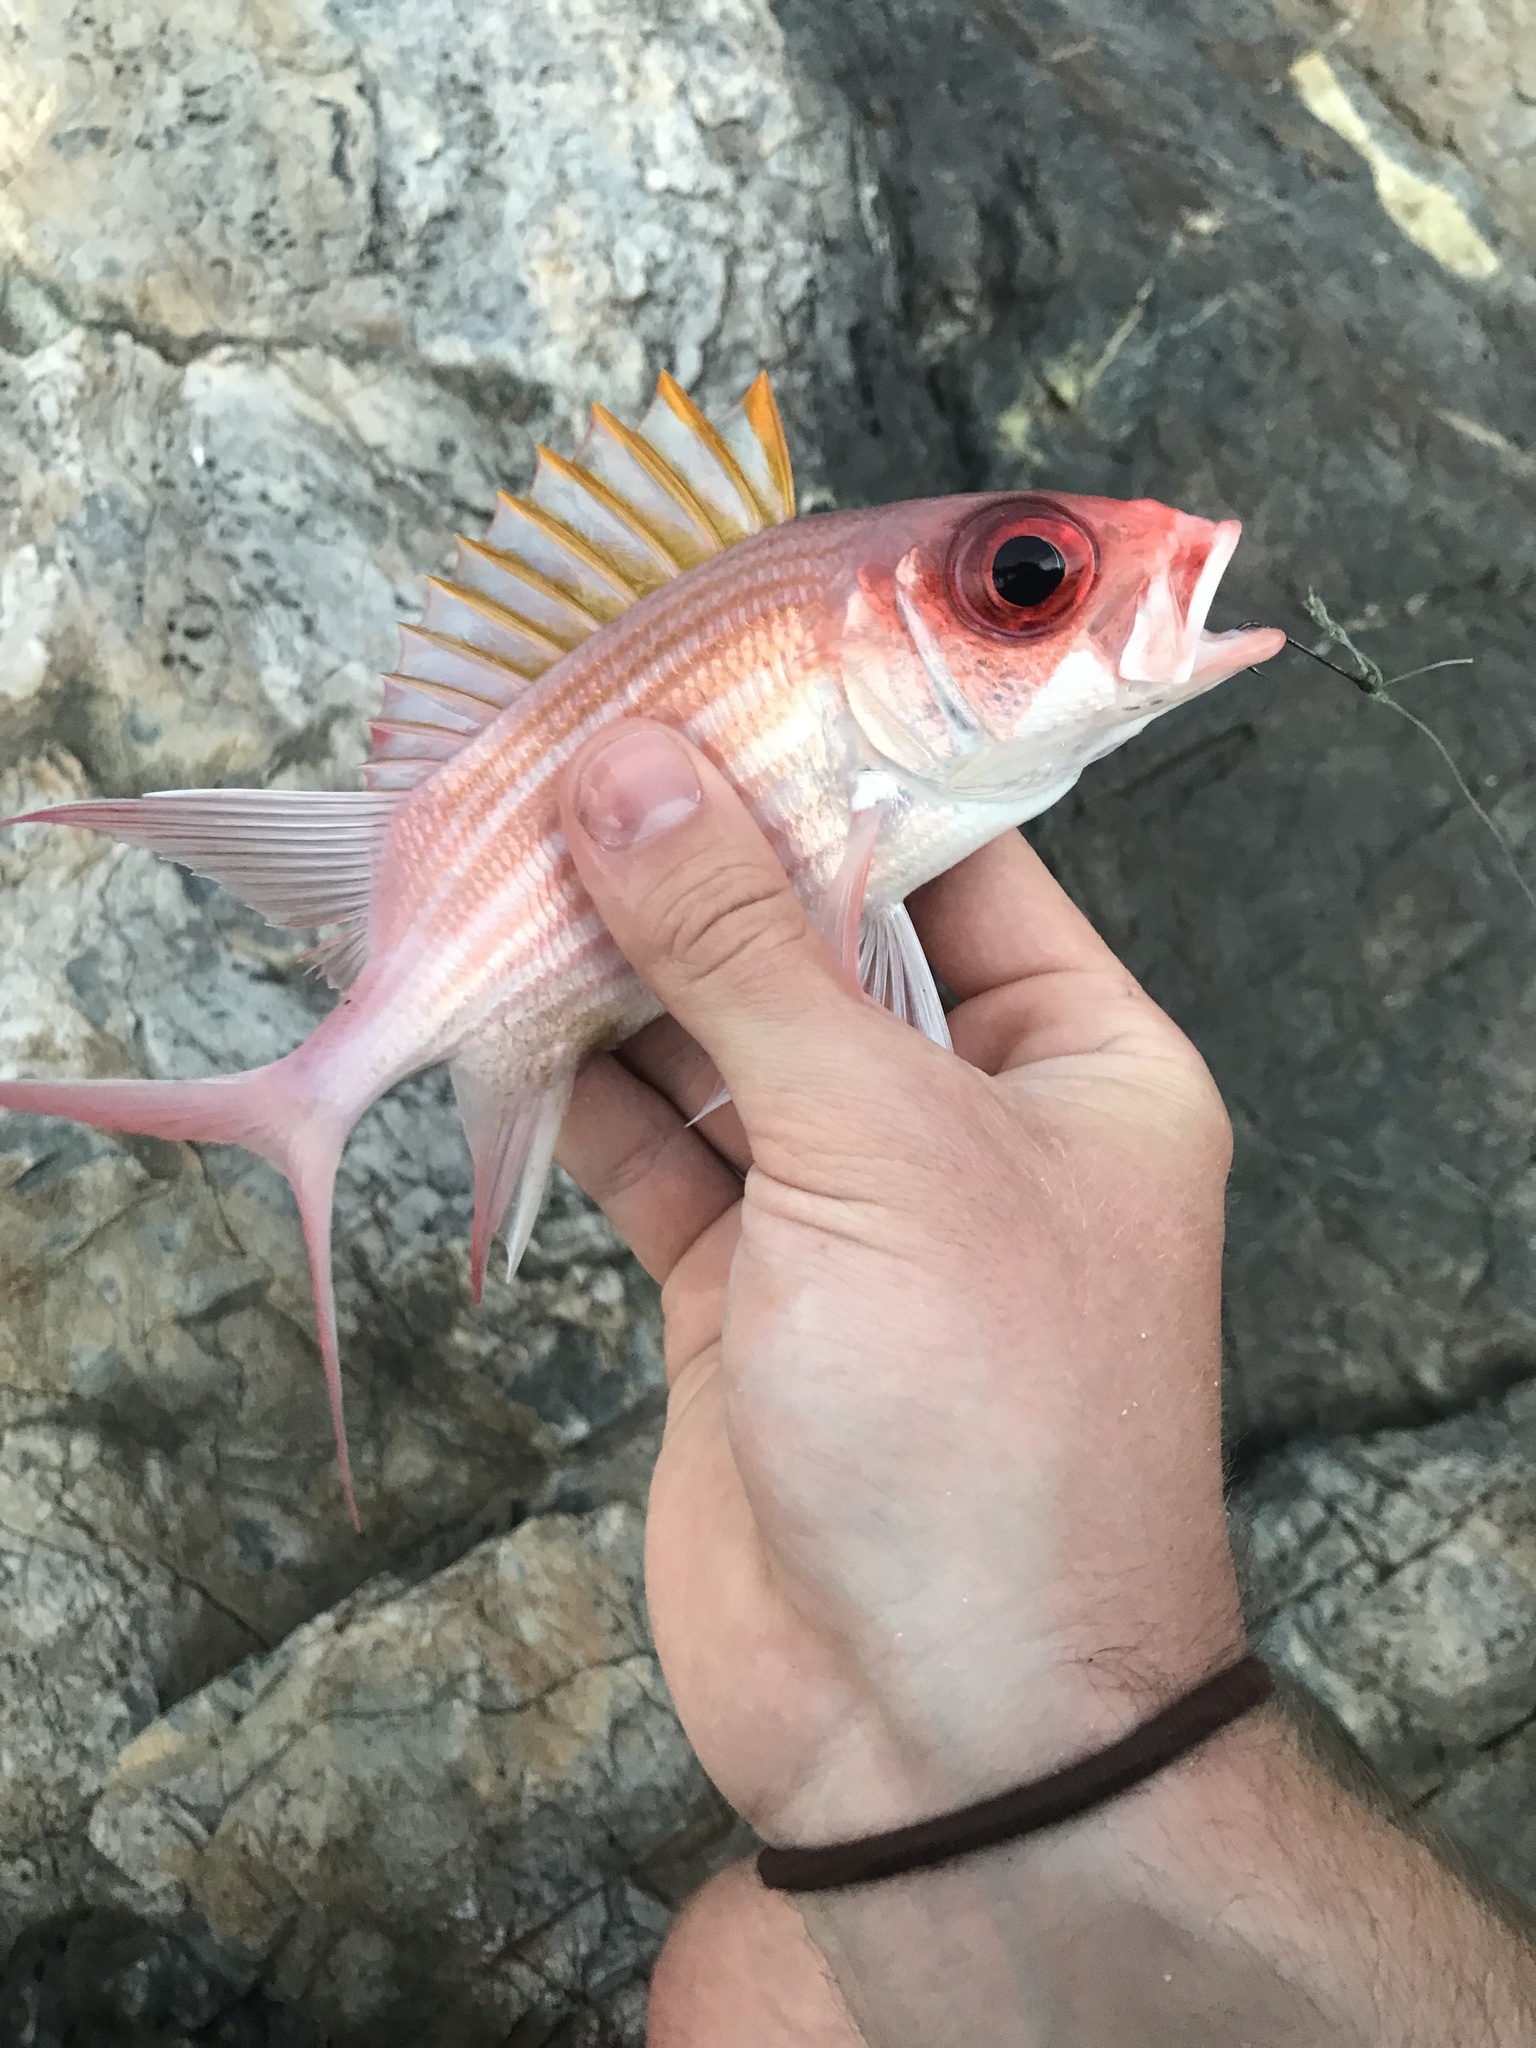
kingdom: Animalia
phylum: Chordata
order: Beryciformes
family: Holocentridae
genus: Holocentrus
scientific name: Holocentrus adscensionis
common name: Squirrelfish
